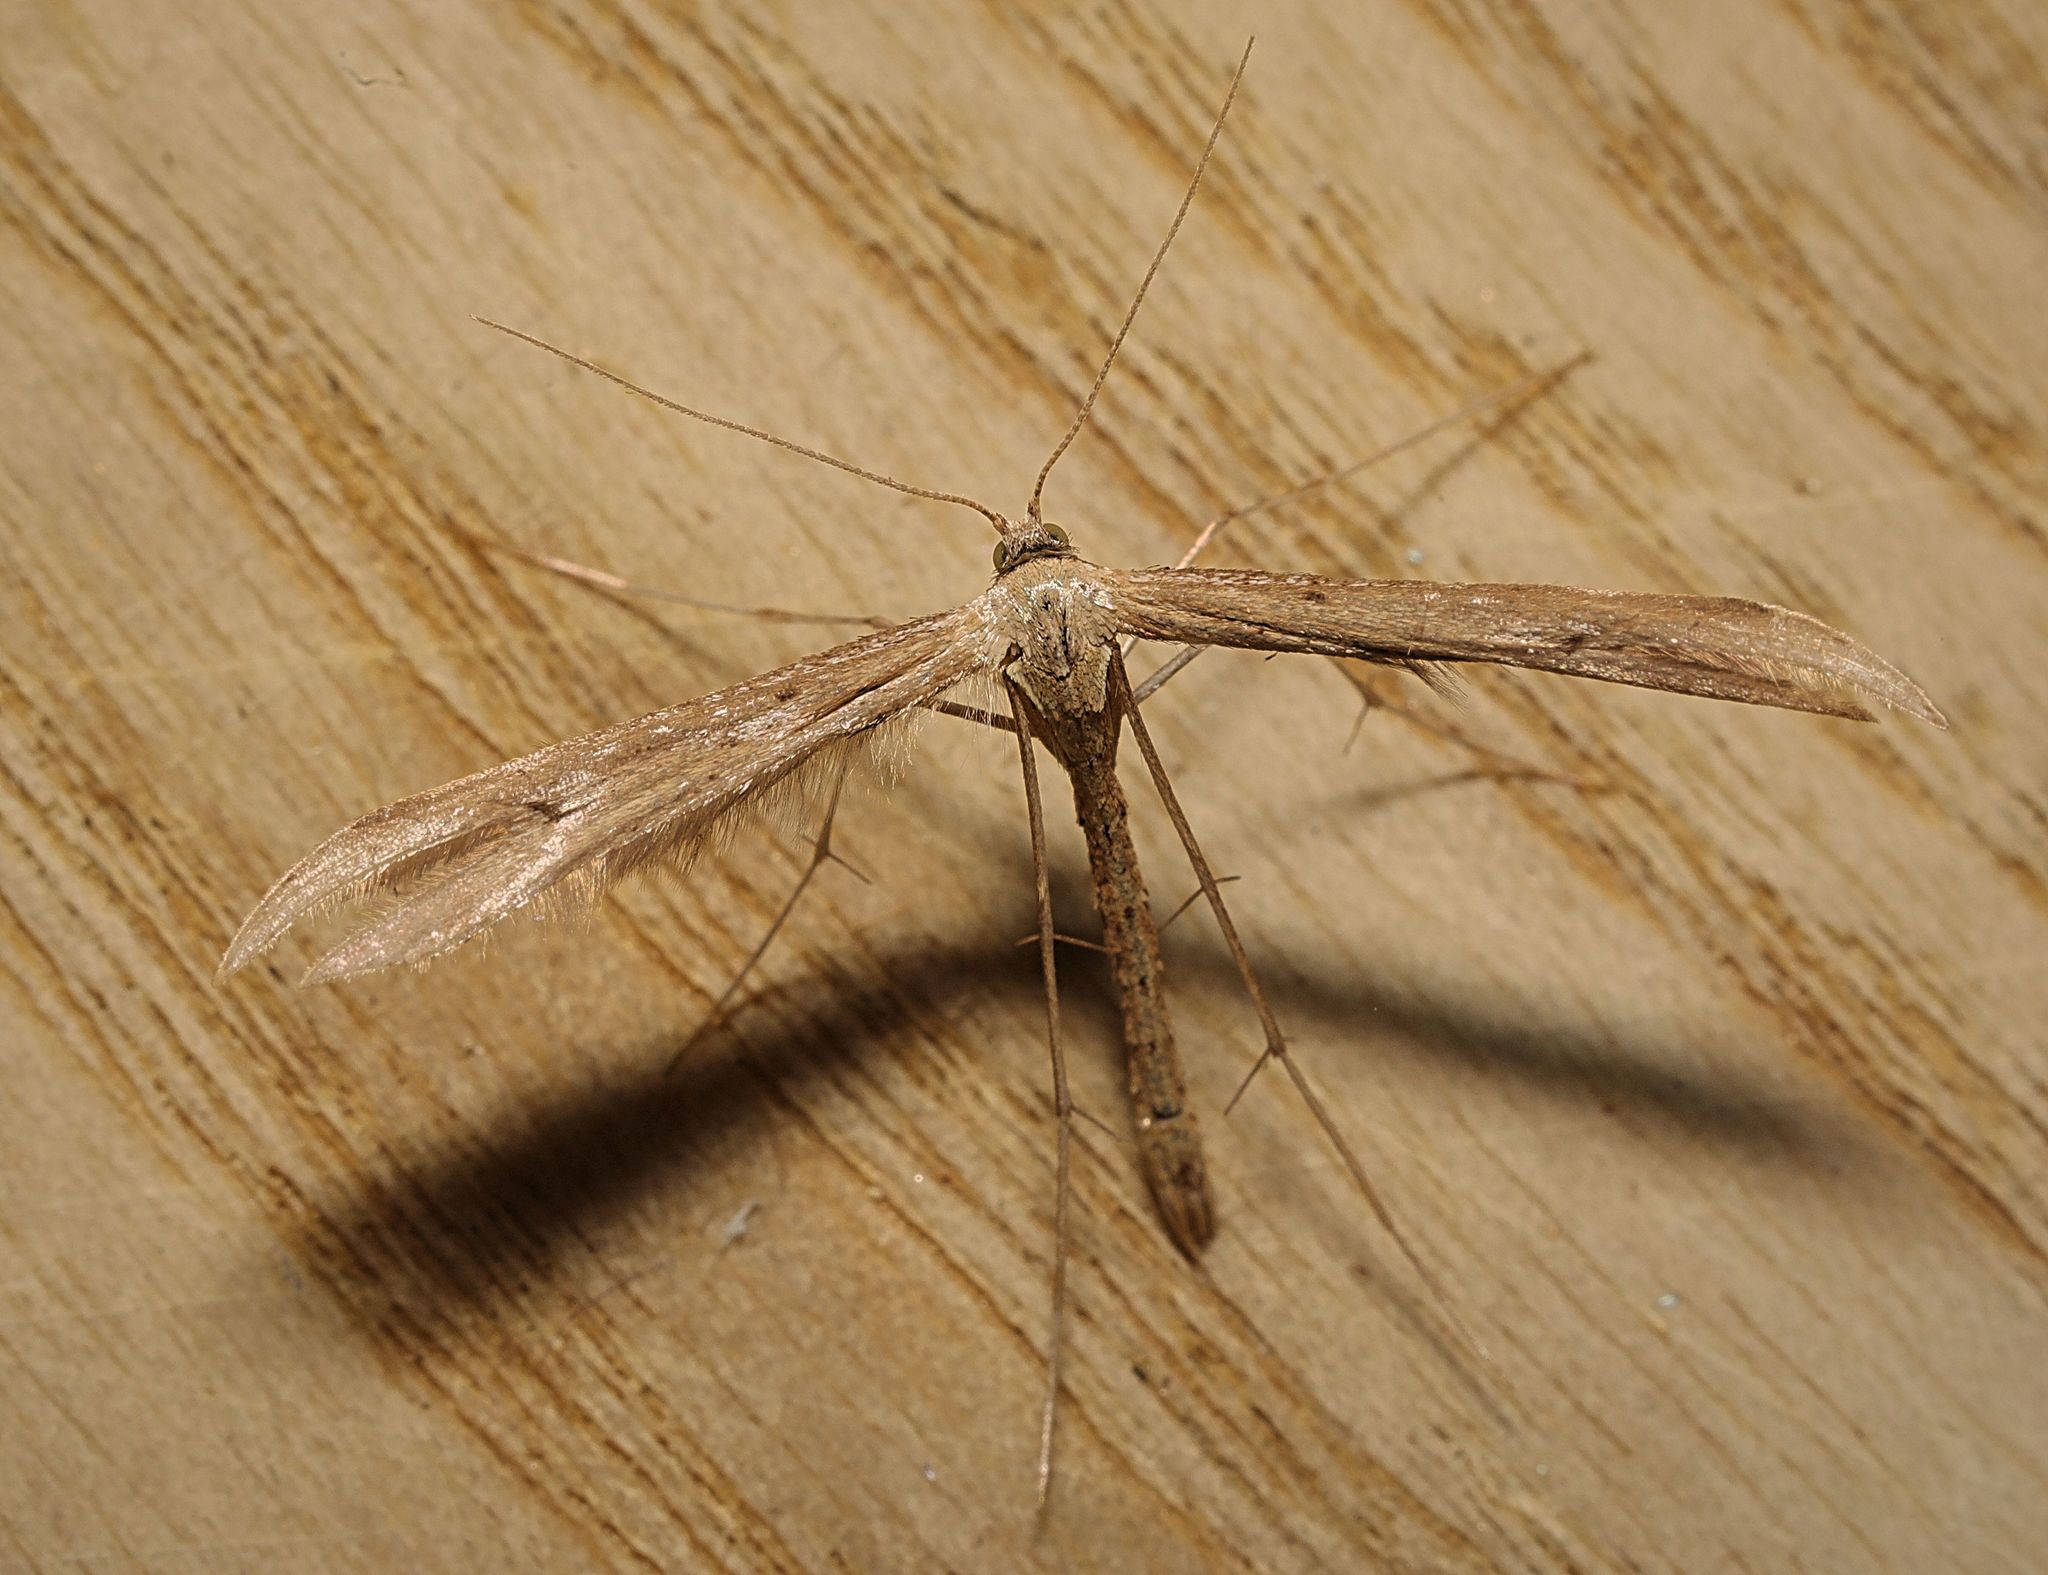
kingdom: Animalia
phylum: Arthropoda
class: Insecta
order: Lepidoptera
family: Pterophoridae
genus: Emmelina
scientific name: Emmelina monodactyla
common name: Common plume
